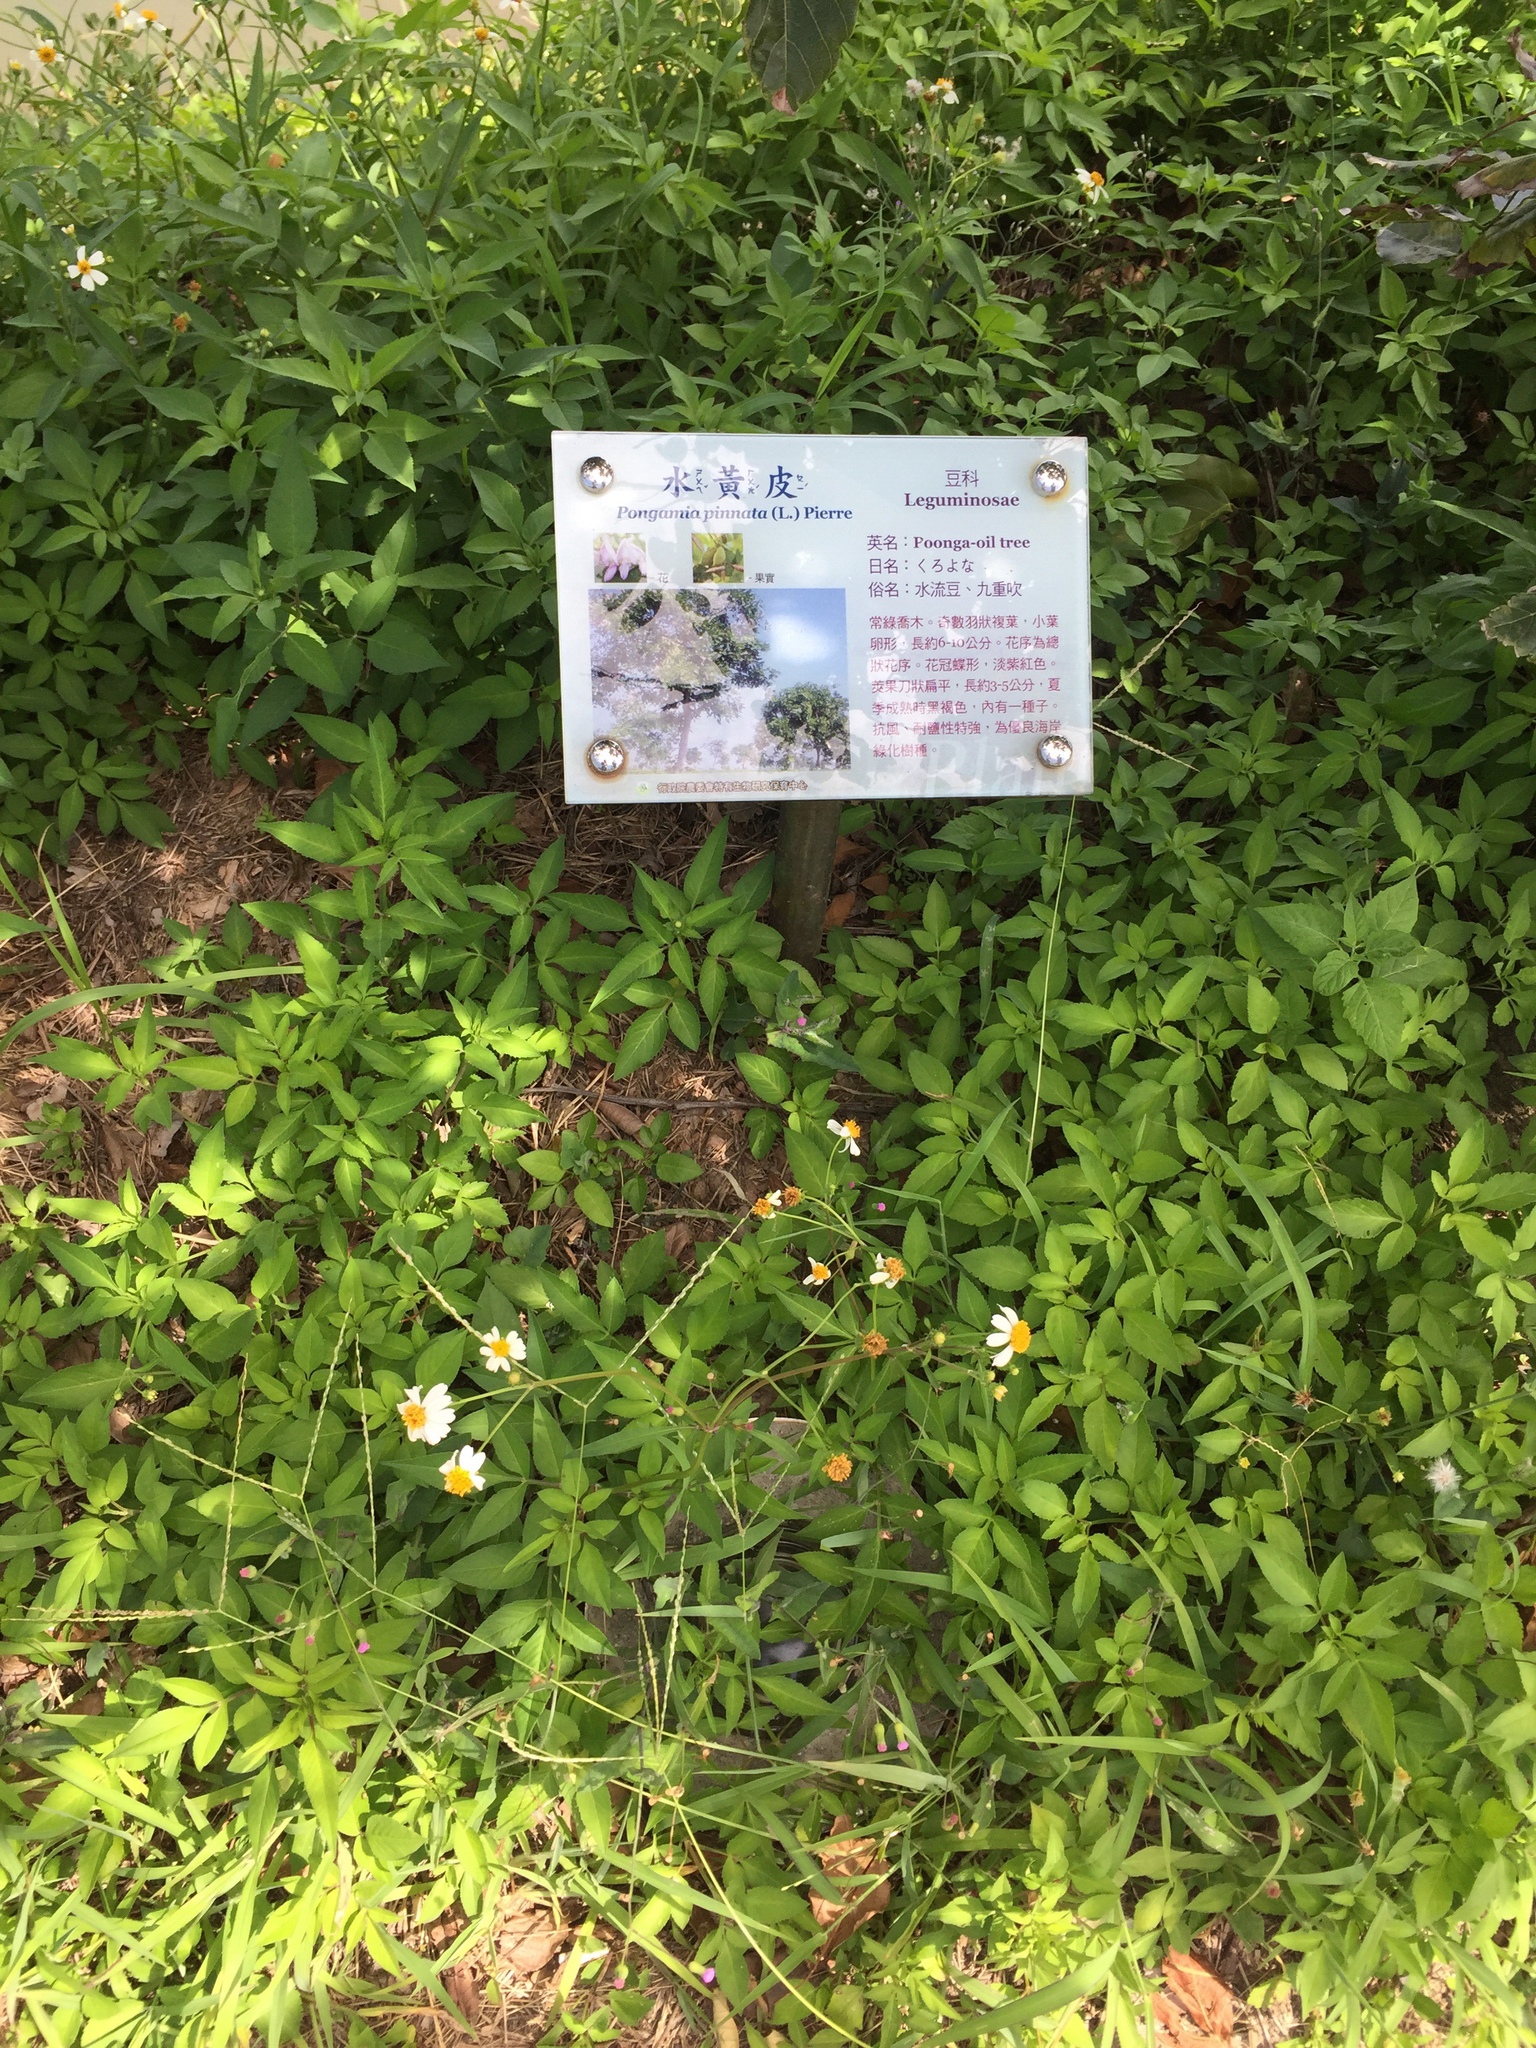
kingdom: Plantae
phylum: Tracheophyta
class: Magnoliopsida
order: Asterales
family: Asteraceae
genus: Bidens
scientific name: Bidens alba
